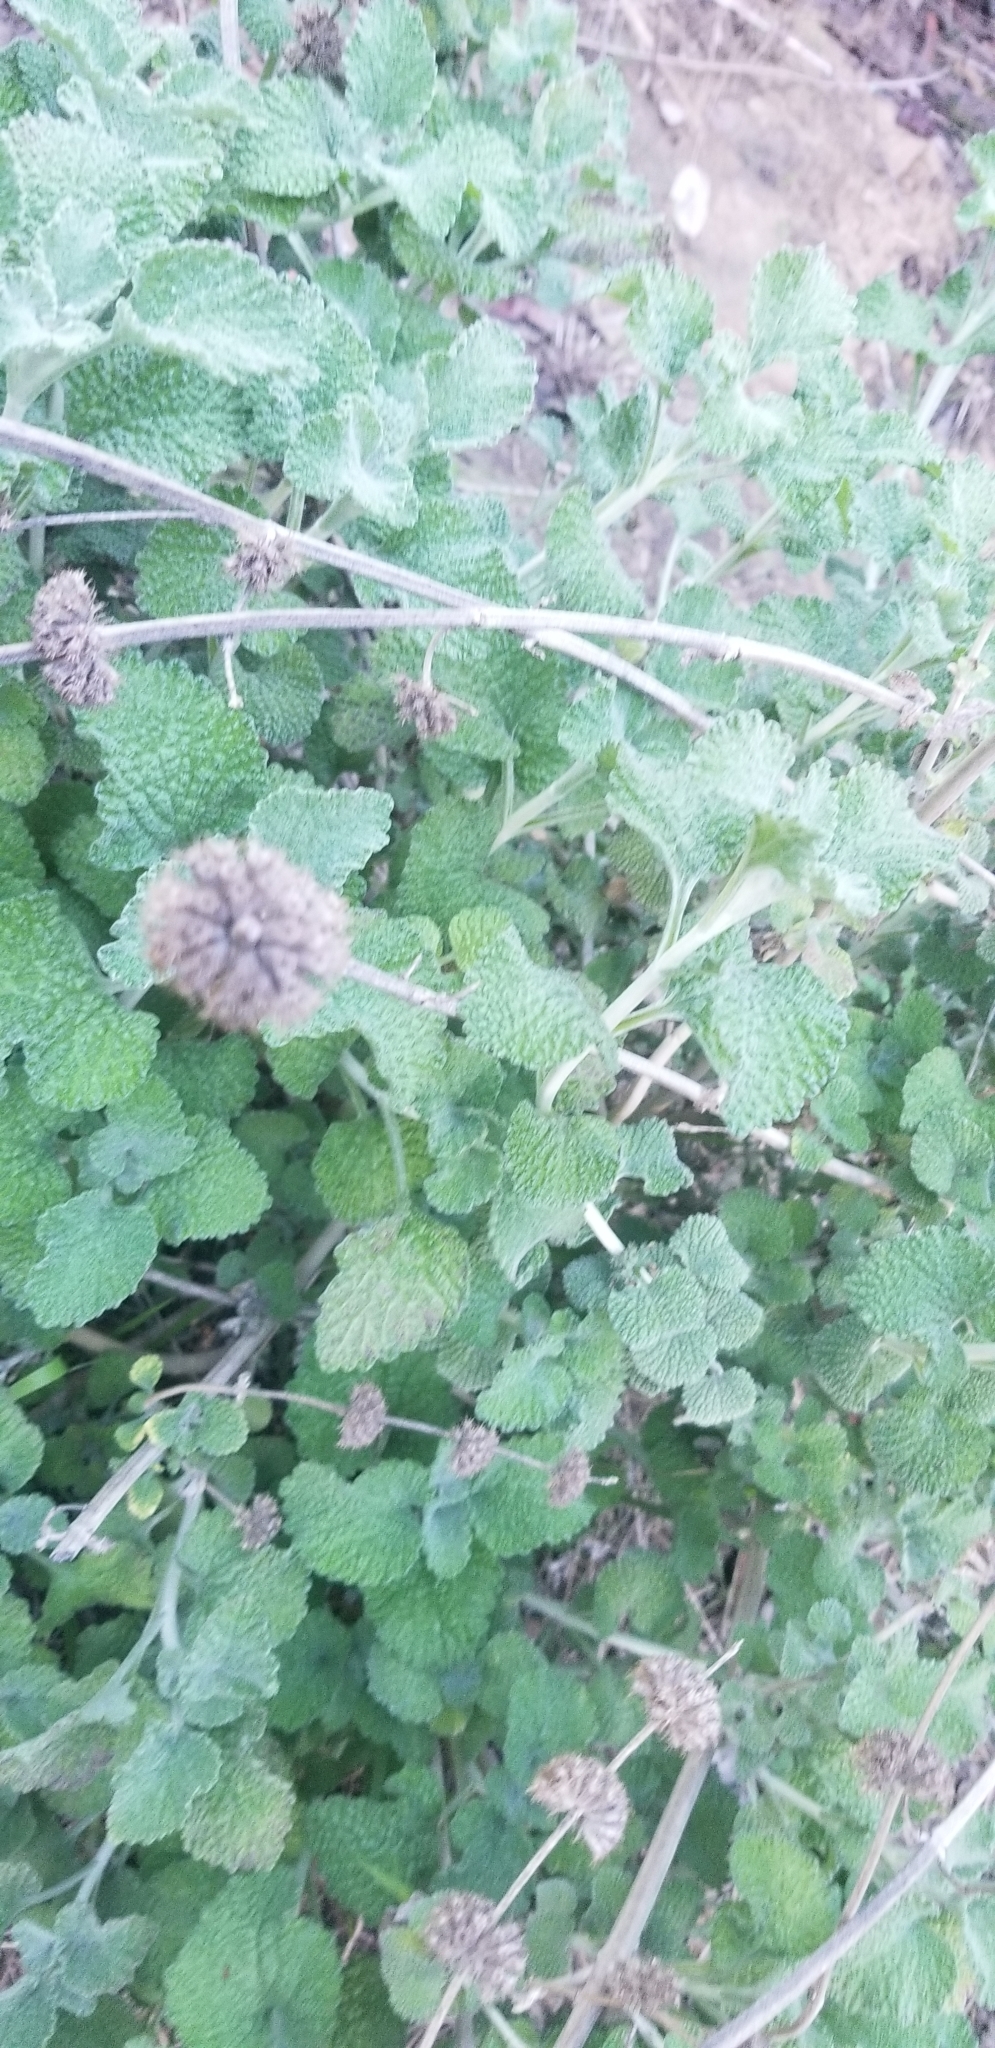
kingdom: Plantae
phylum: Tracheophyta
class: Magnoliopsida
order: Lamiales
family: Lamiaceae
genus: Marrubium
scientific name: Marrubium vulgare
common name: Horehound
